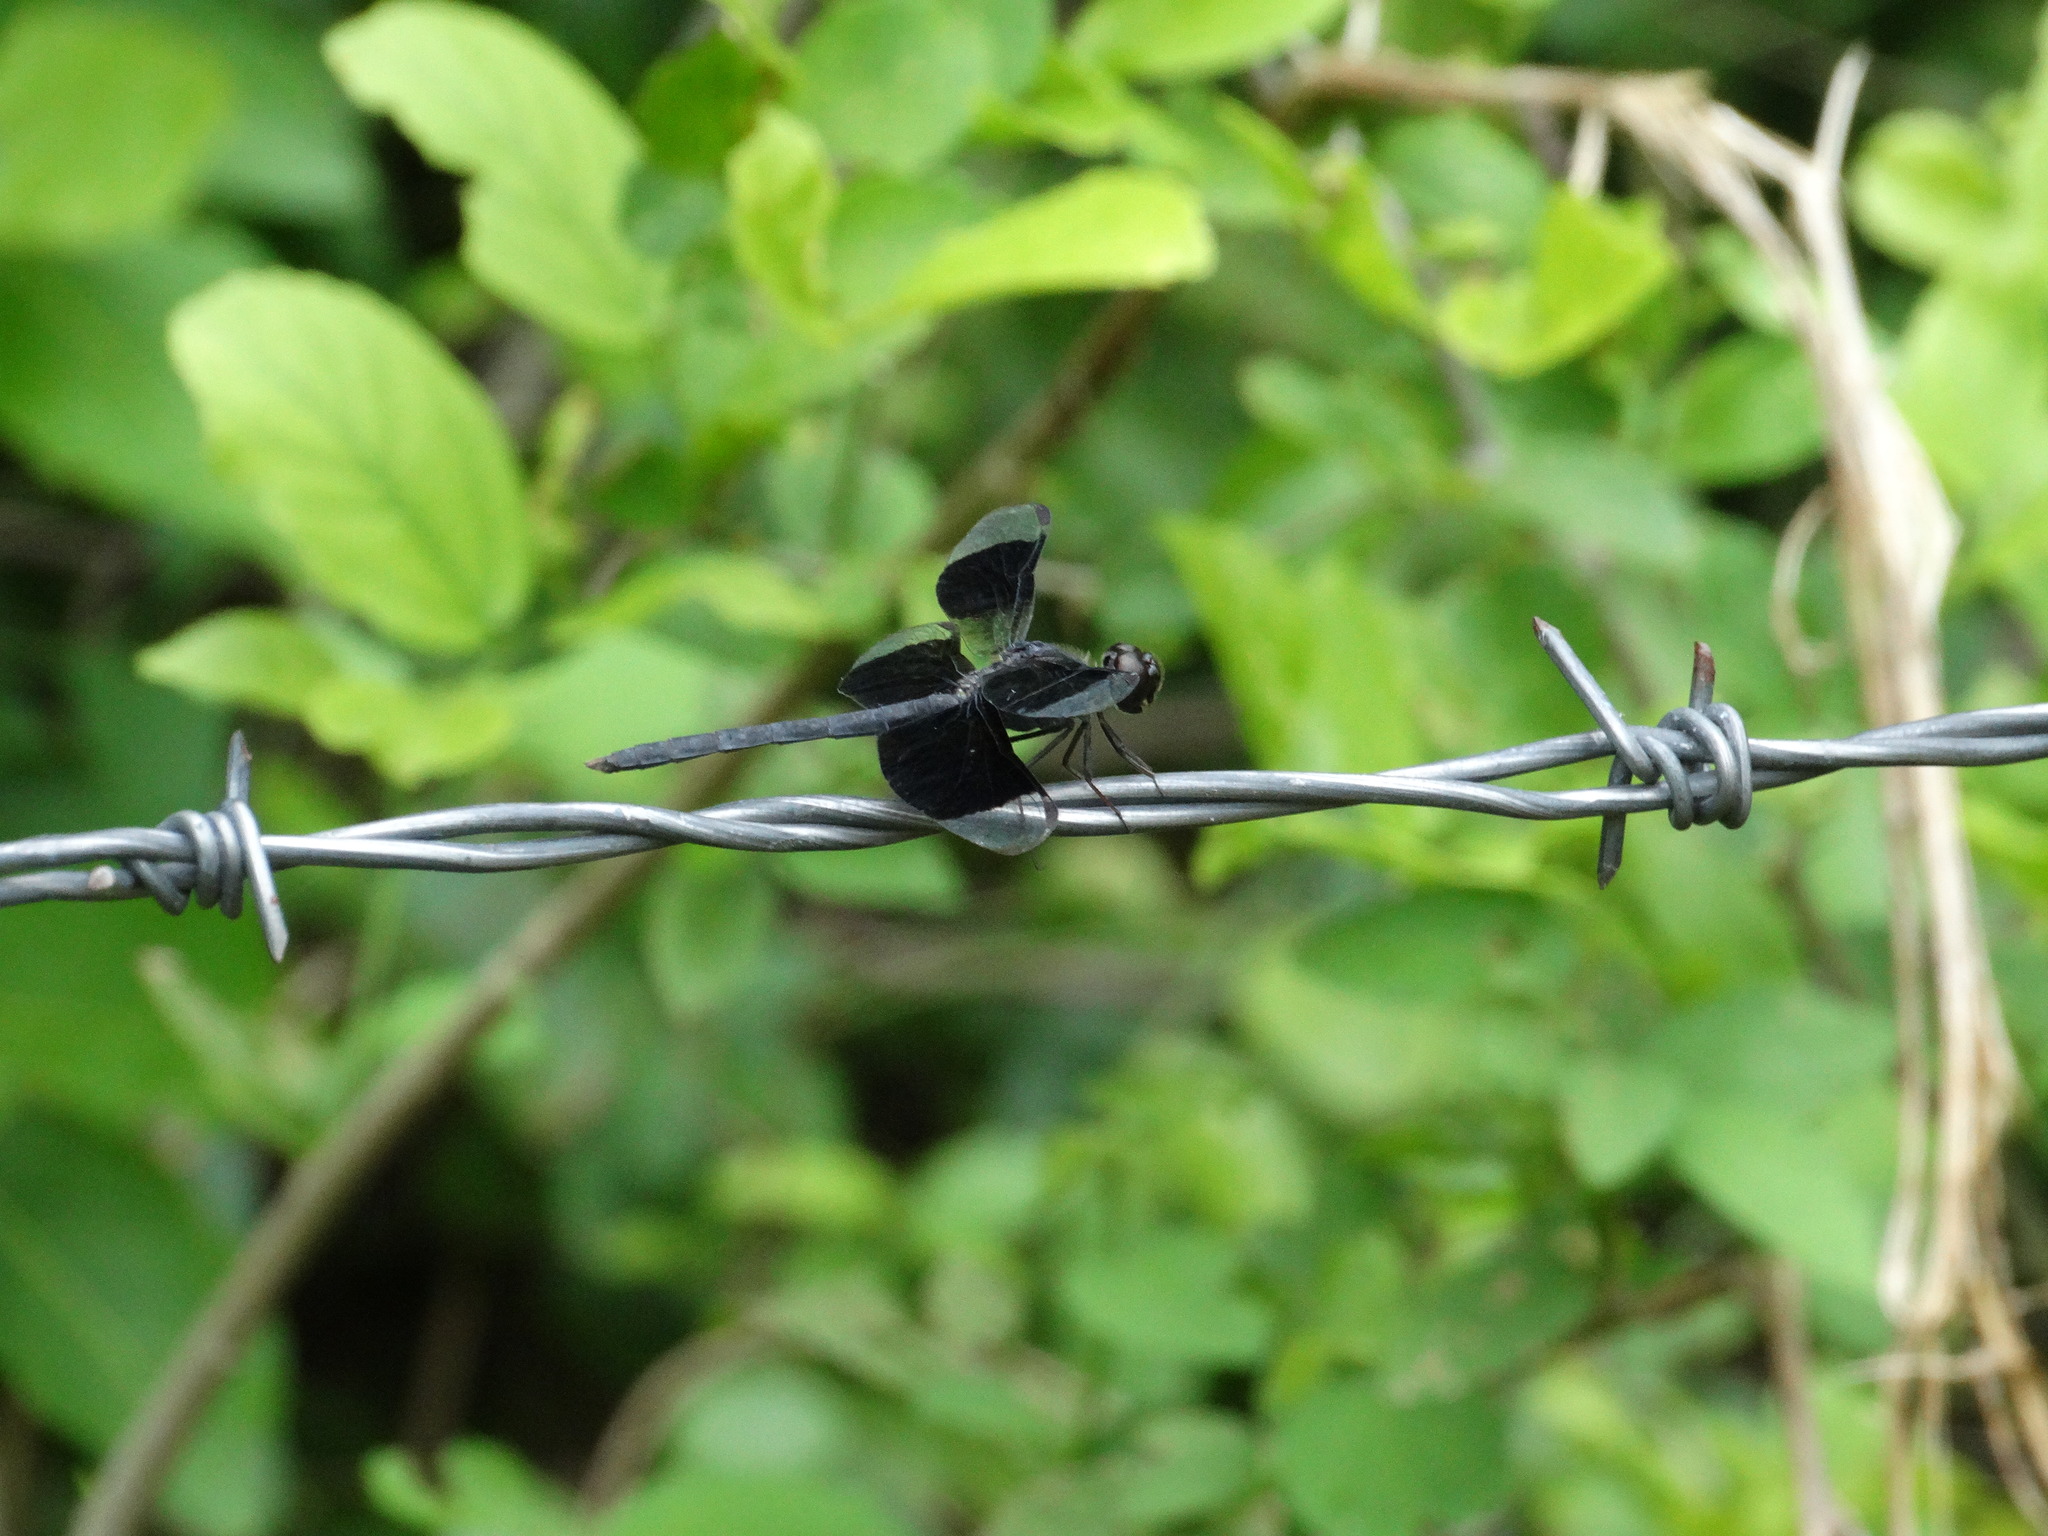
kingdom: Animalia
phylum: Arthropoda
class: Insecta
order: Odonata
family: Libellulidae
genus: Erythrodiplax
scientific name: Erythrodiplax funerea
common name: Black-winged dragonlet
